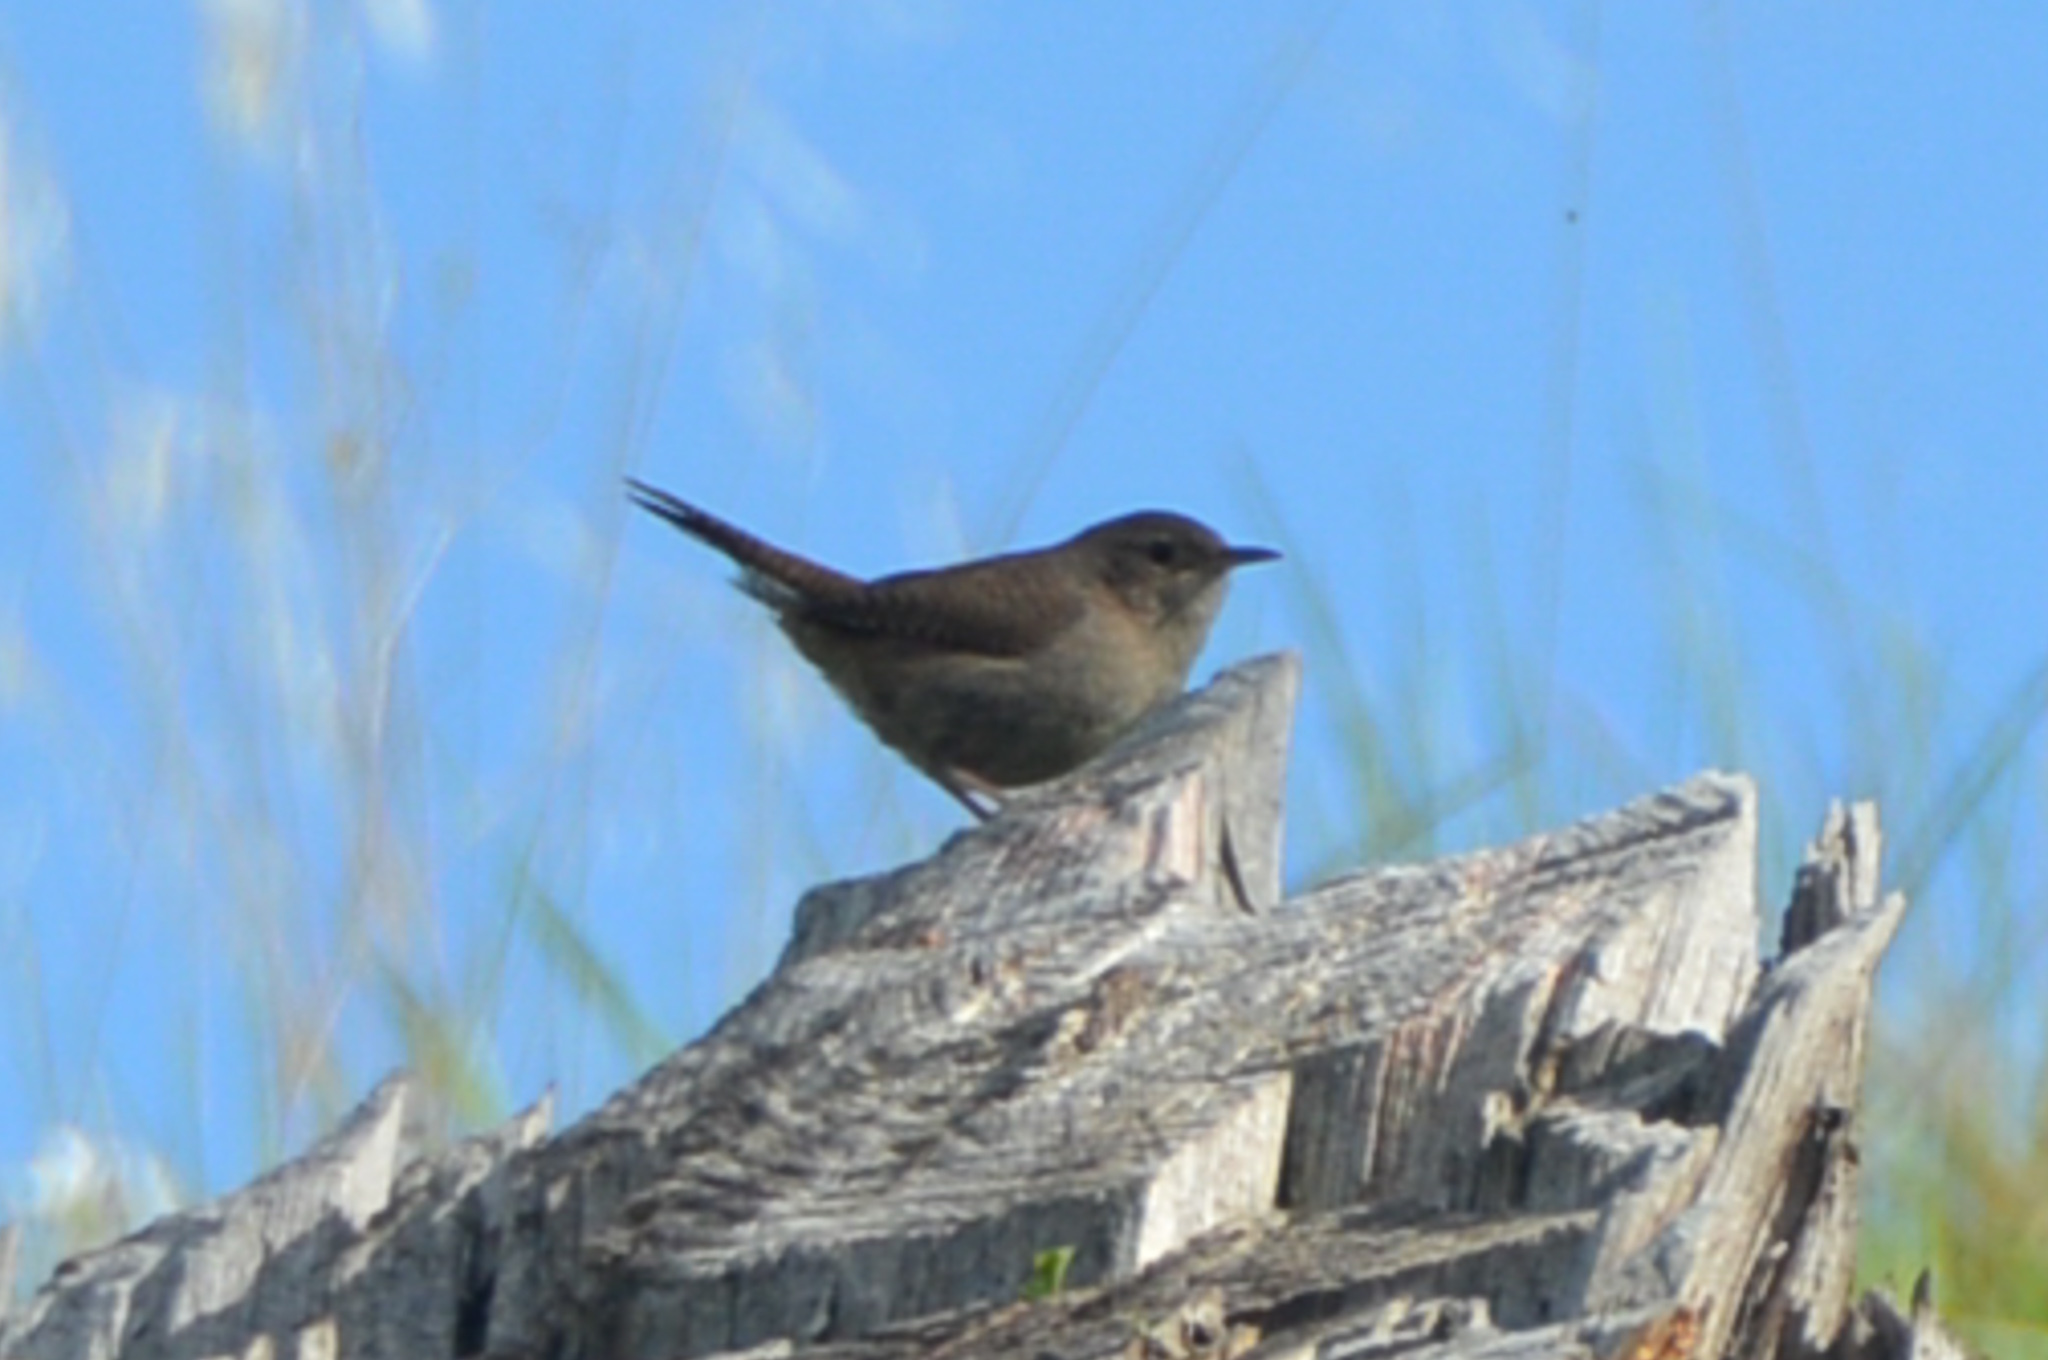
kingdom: Animalia
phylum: Chordata
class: Aves
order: Passeriformes
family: Troglodytidae
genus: Troglodytes
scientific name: Troglodytes aedon
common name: House wren
